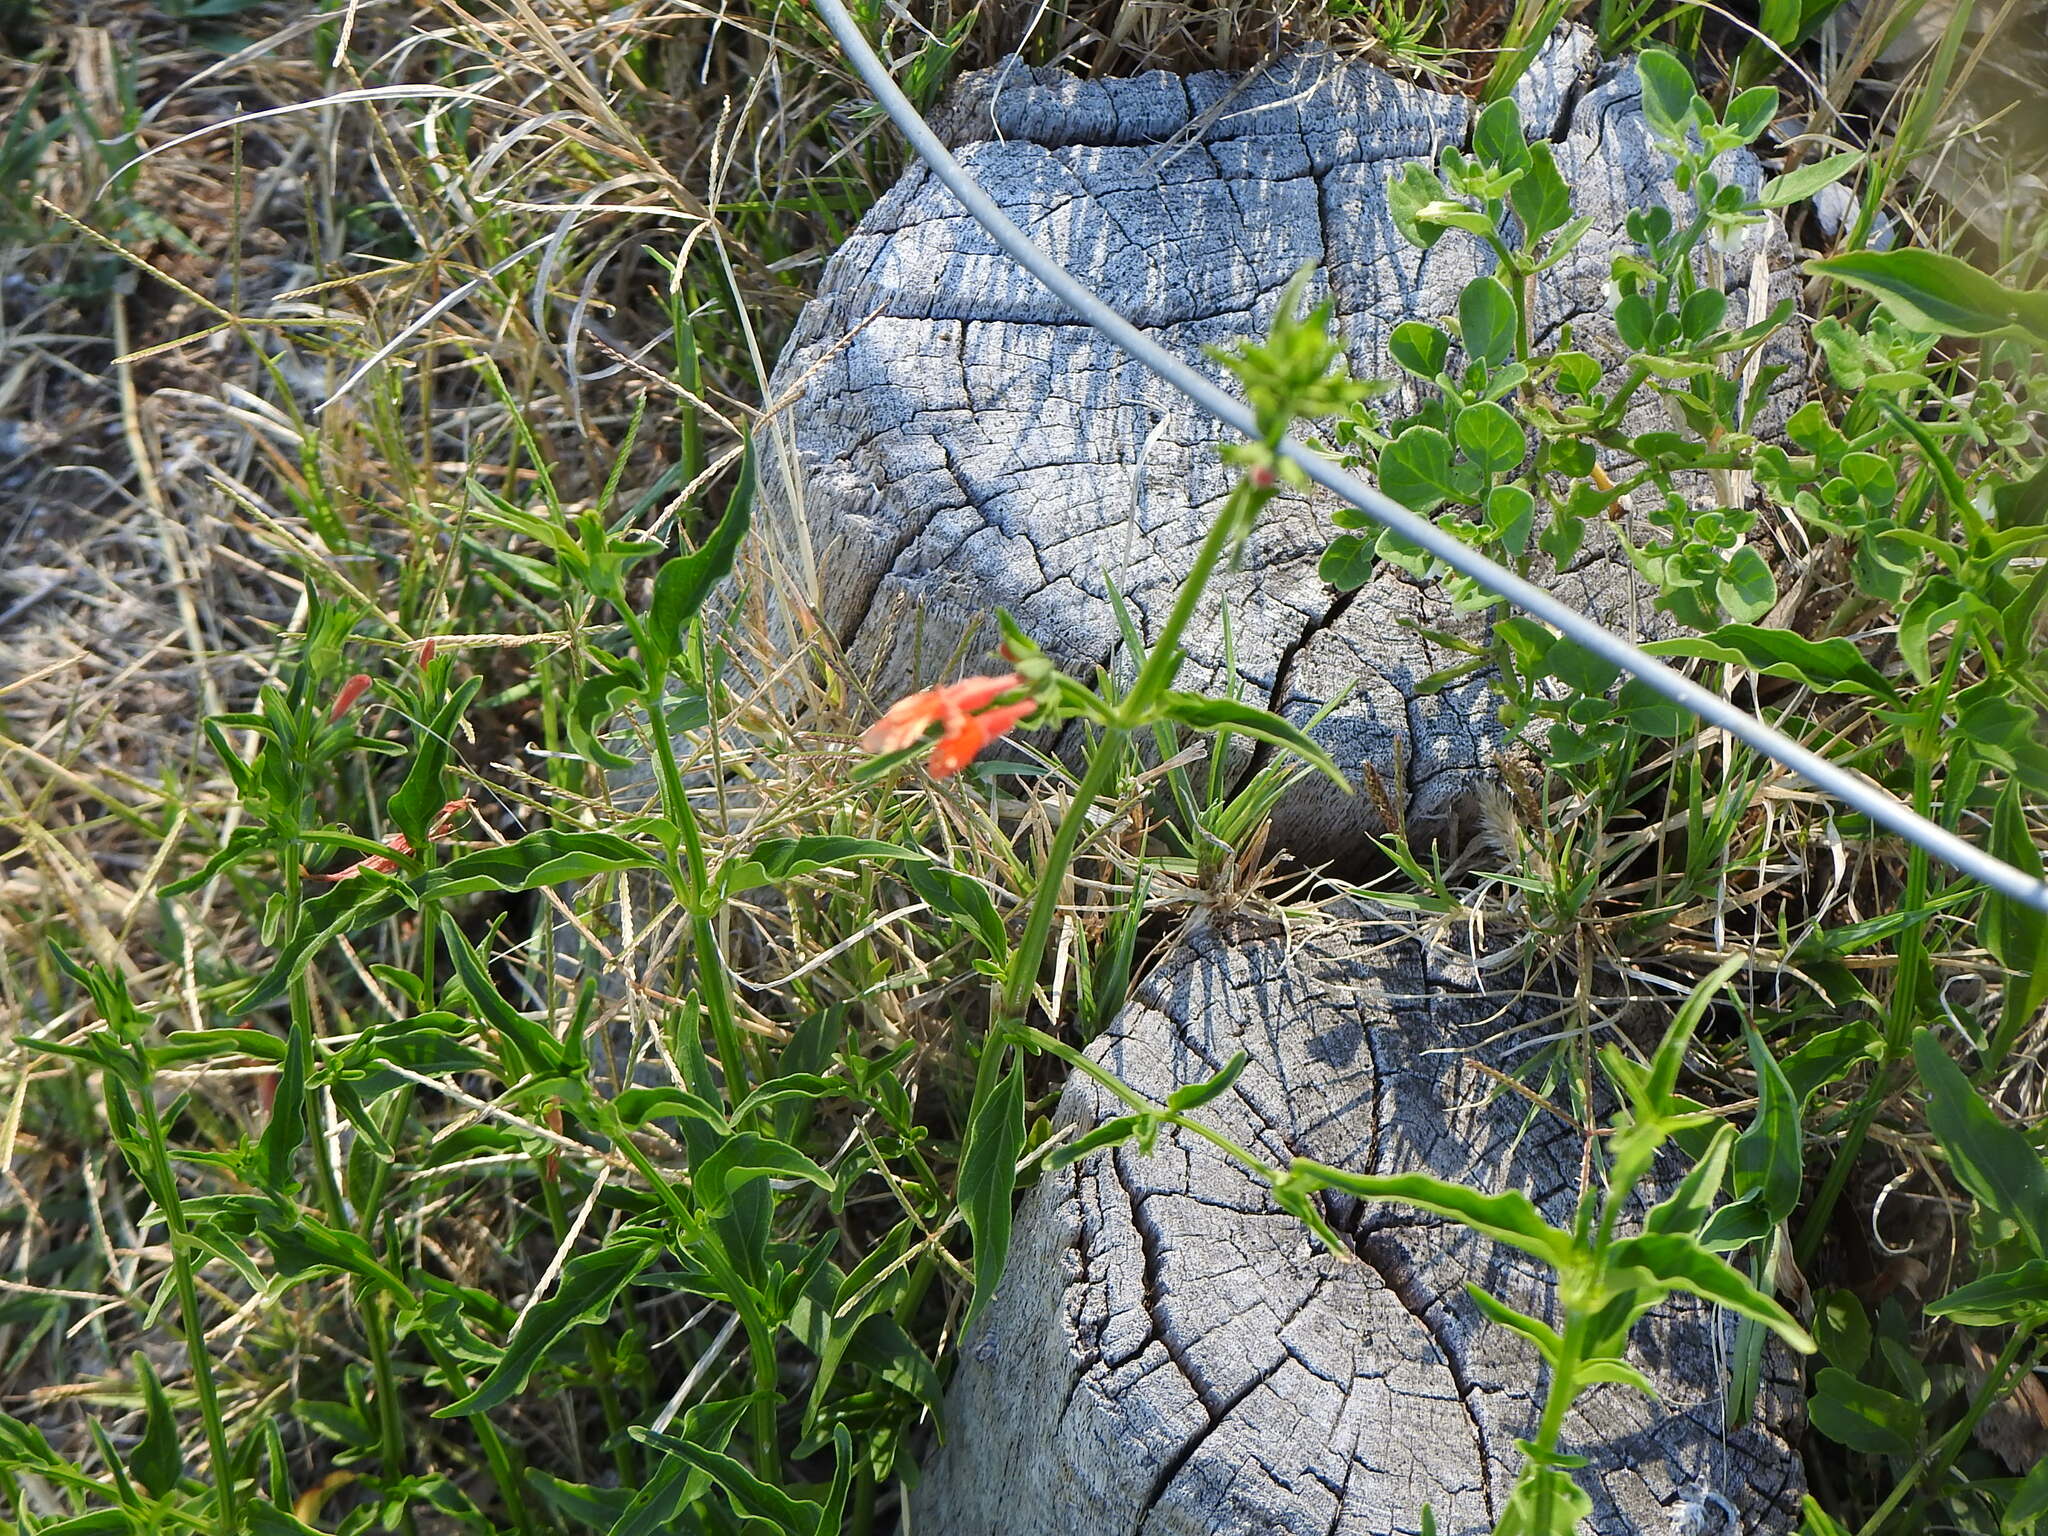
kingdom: Plantae
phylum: Tracheophyta
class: Magnoliopsida
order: Lamiales
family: Acanthaceae
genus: Dicliptera
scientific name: Dicliptera squarrosa
